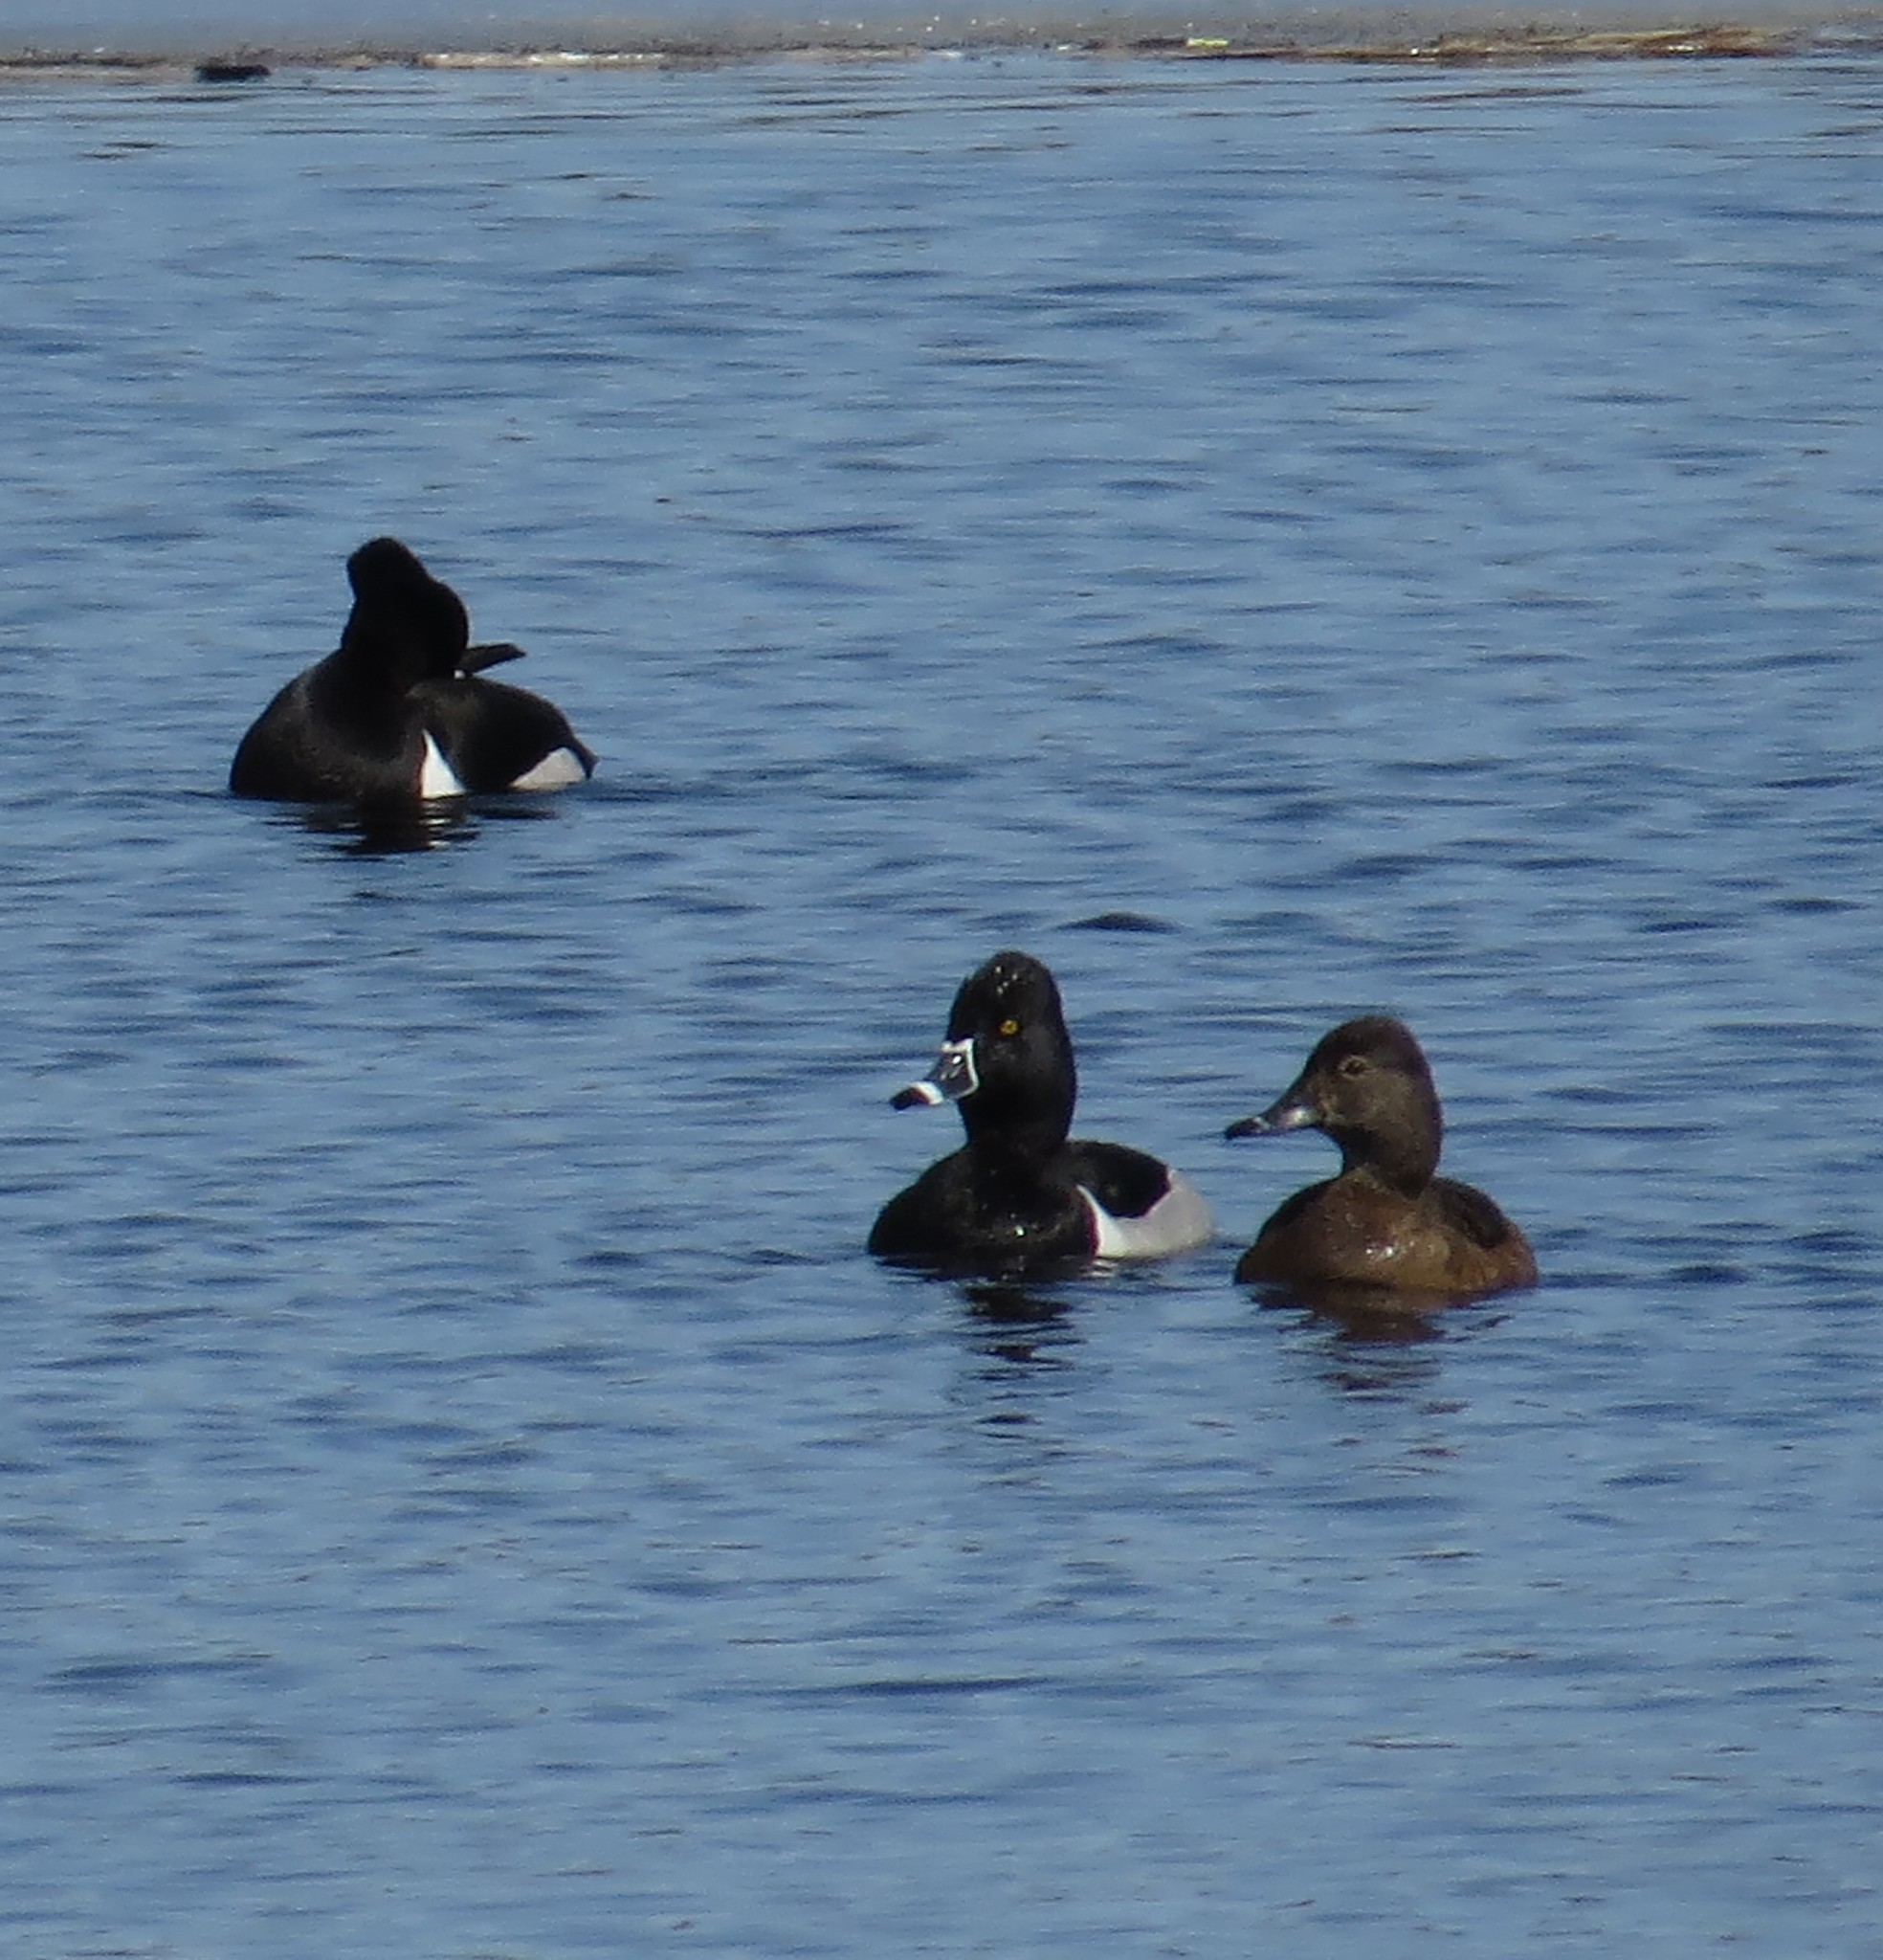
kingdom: Animalia
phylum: Chordata
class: Aves
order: Anseriformes
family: Anatidae
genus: Aythya
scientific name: Aythya collaris
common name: Ring-necked duck
